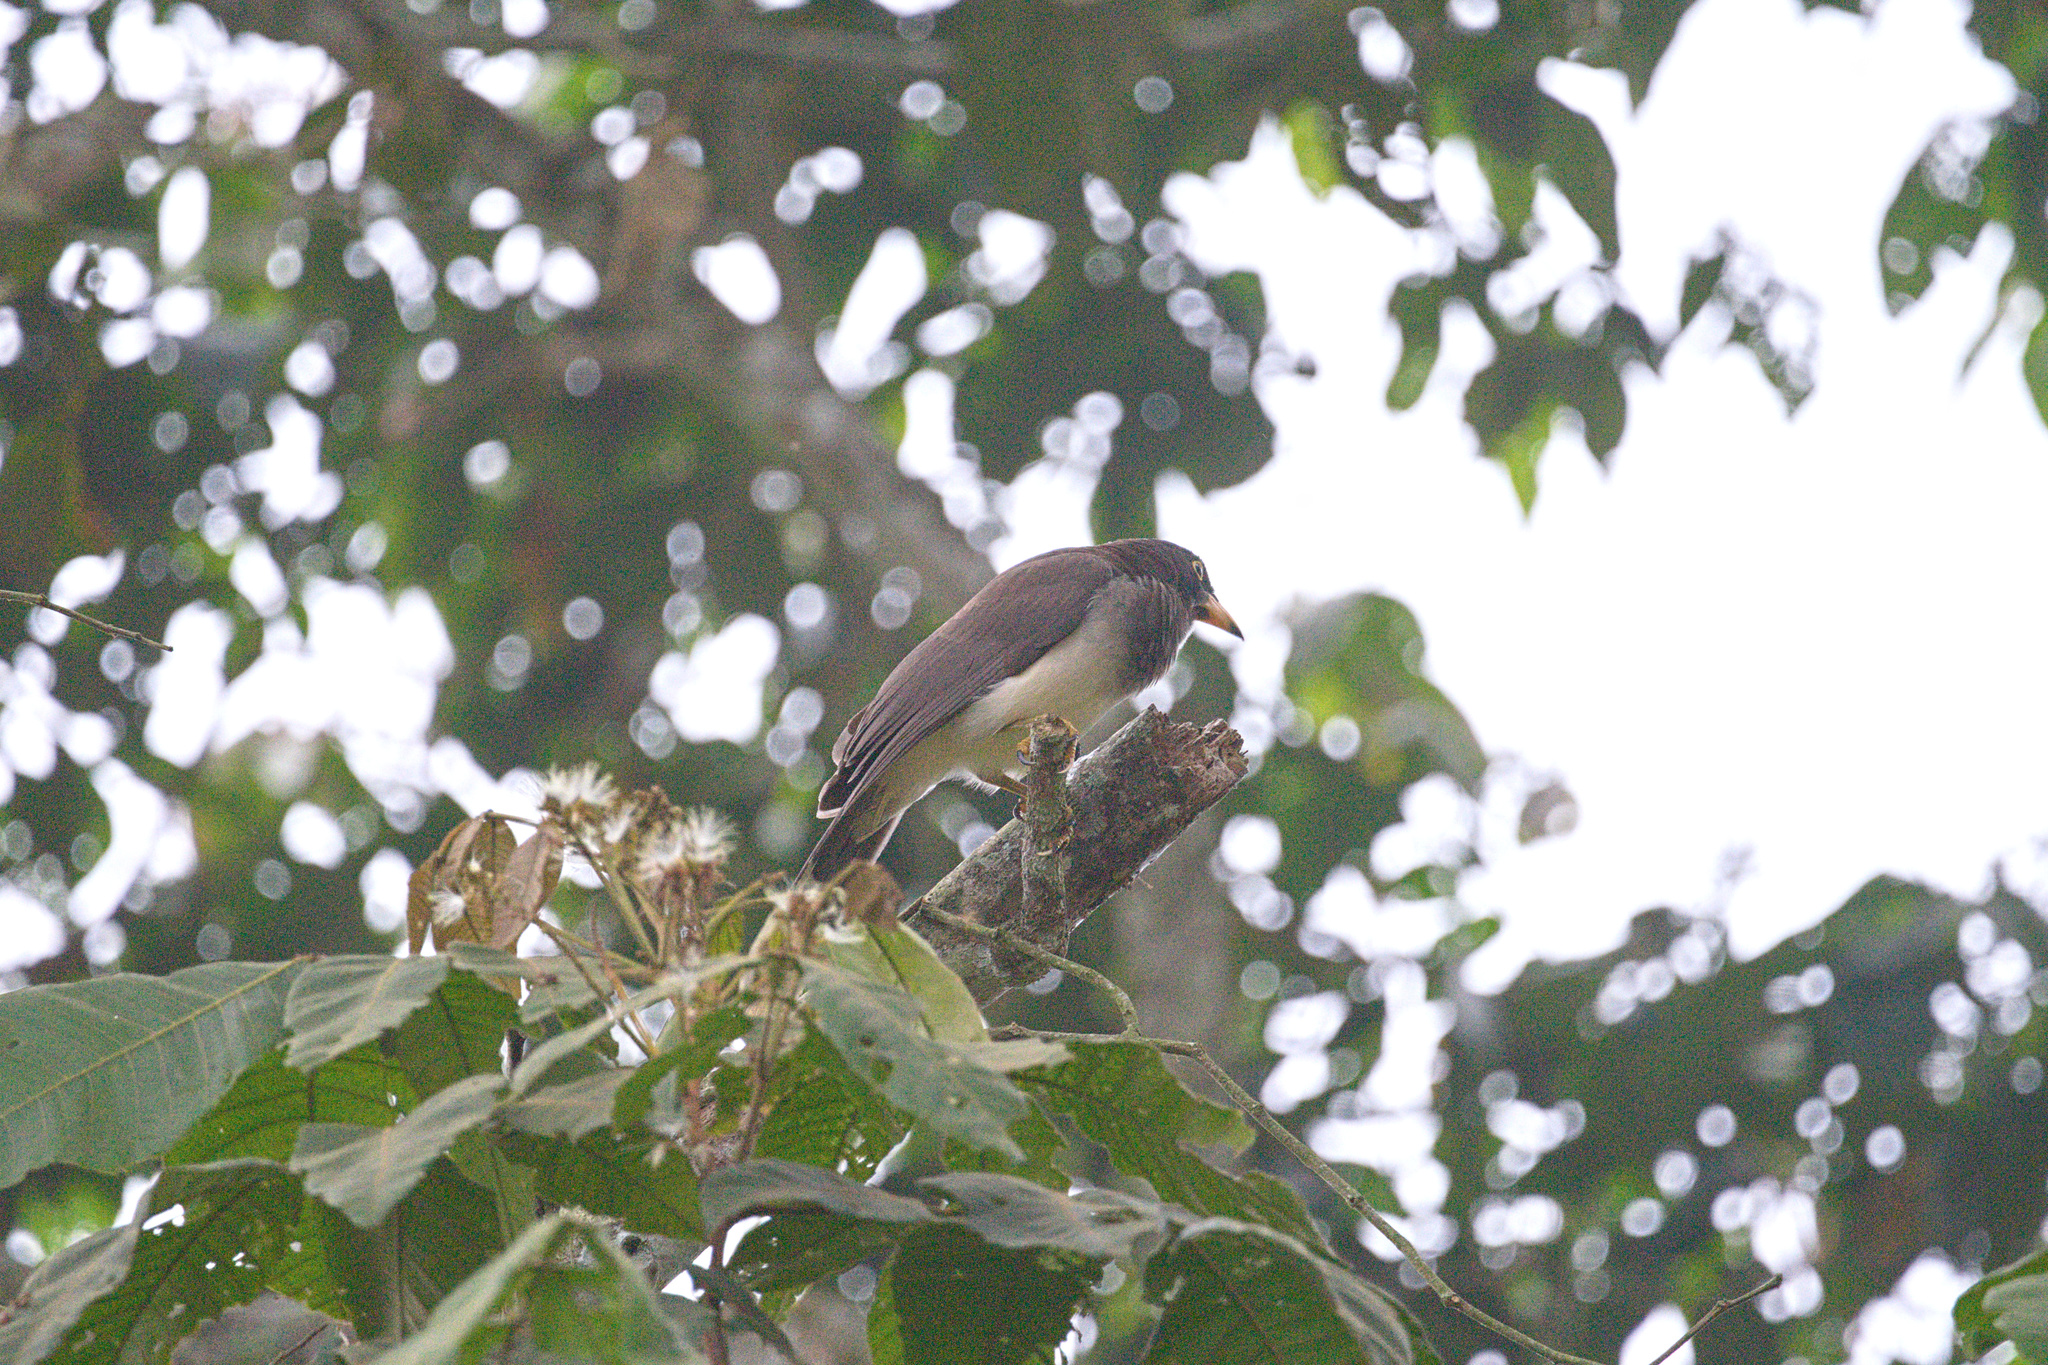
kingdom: Animalia
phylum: Chordata
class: Aves
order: Passeriformes
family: Corvidae
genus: Psilorhinus
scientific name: Psilorhinus morio
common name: Brown jay
